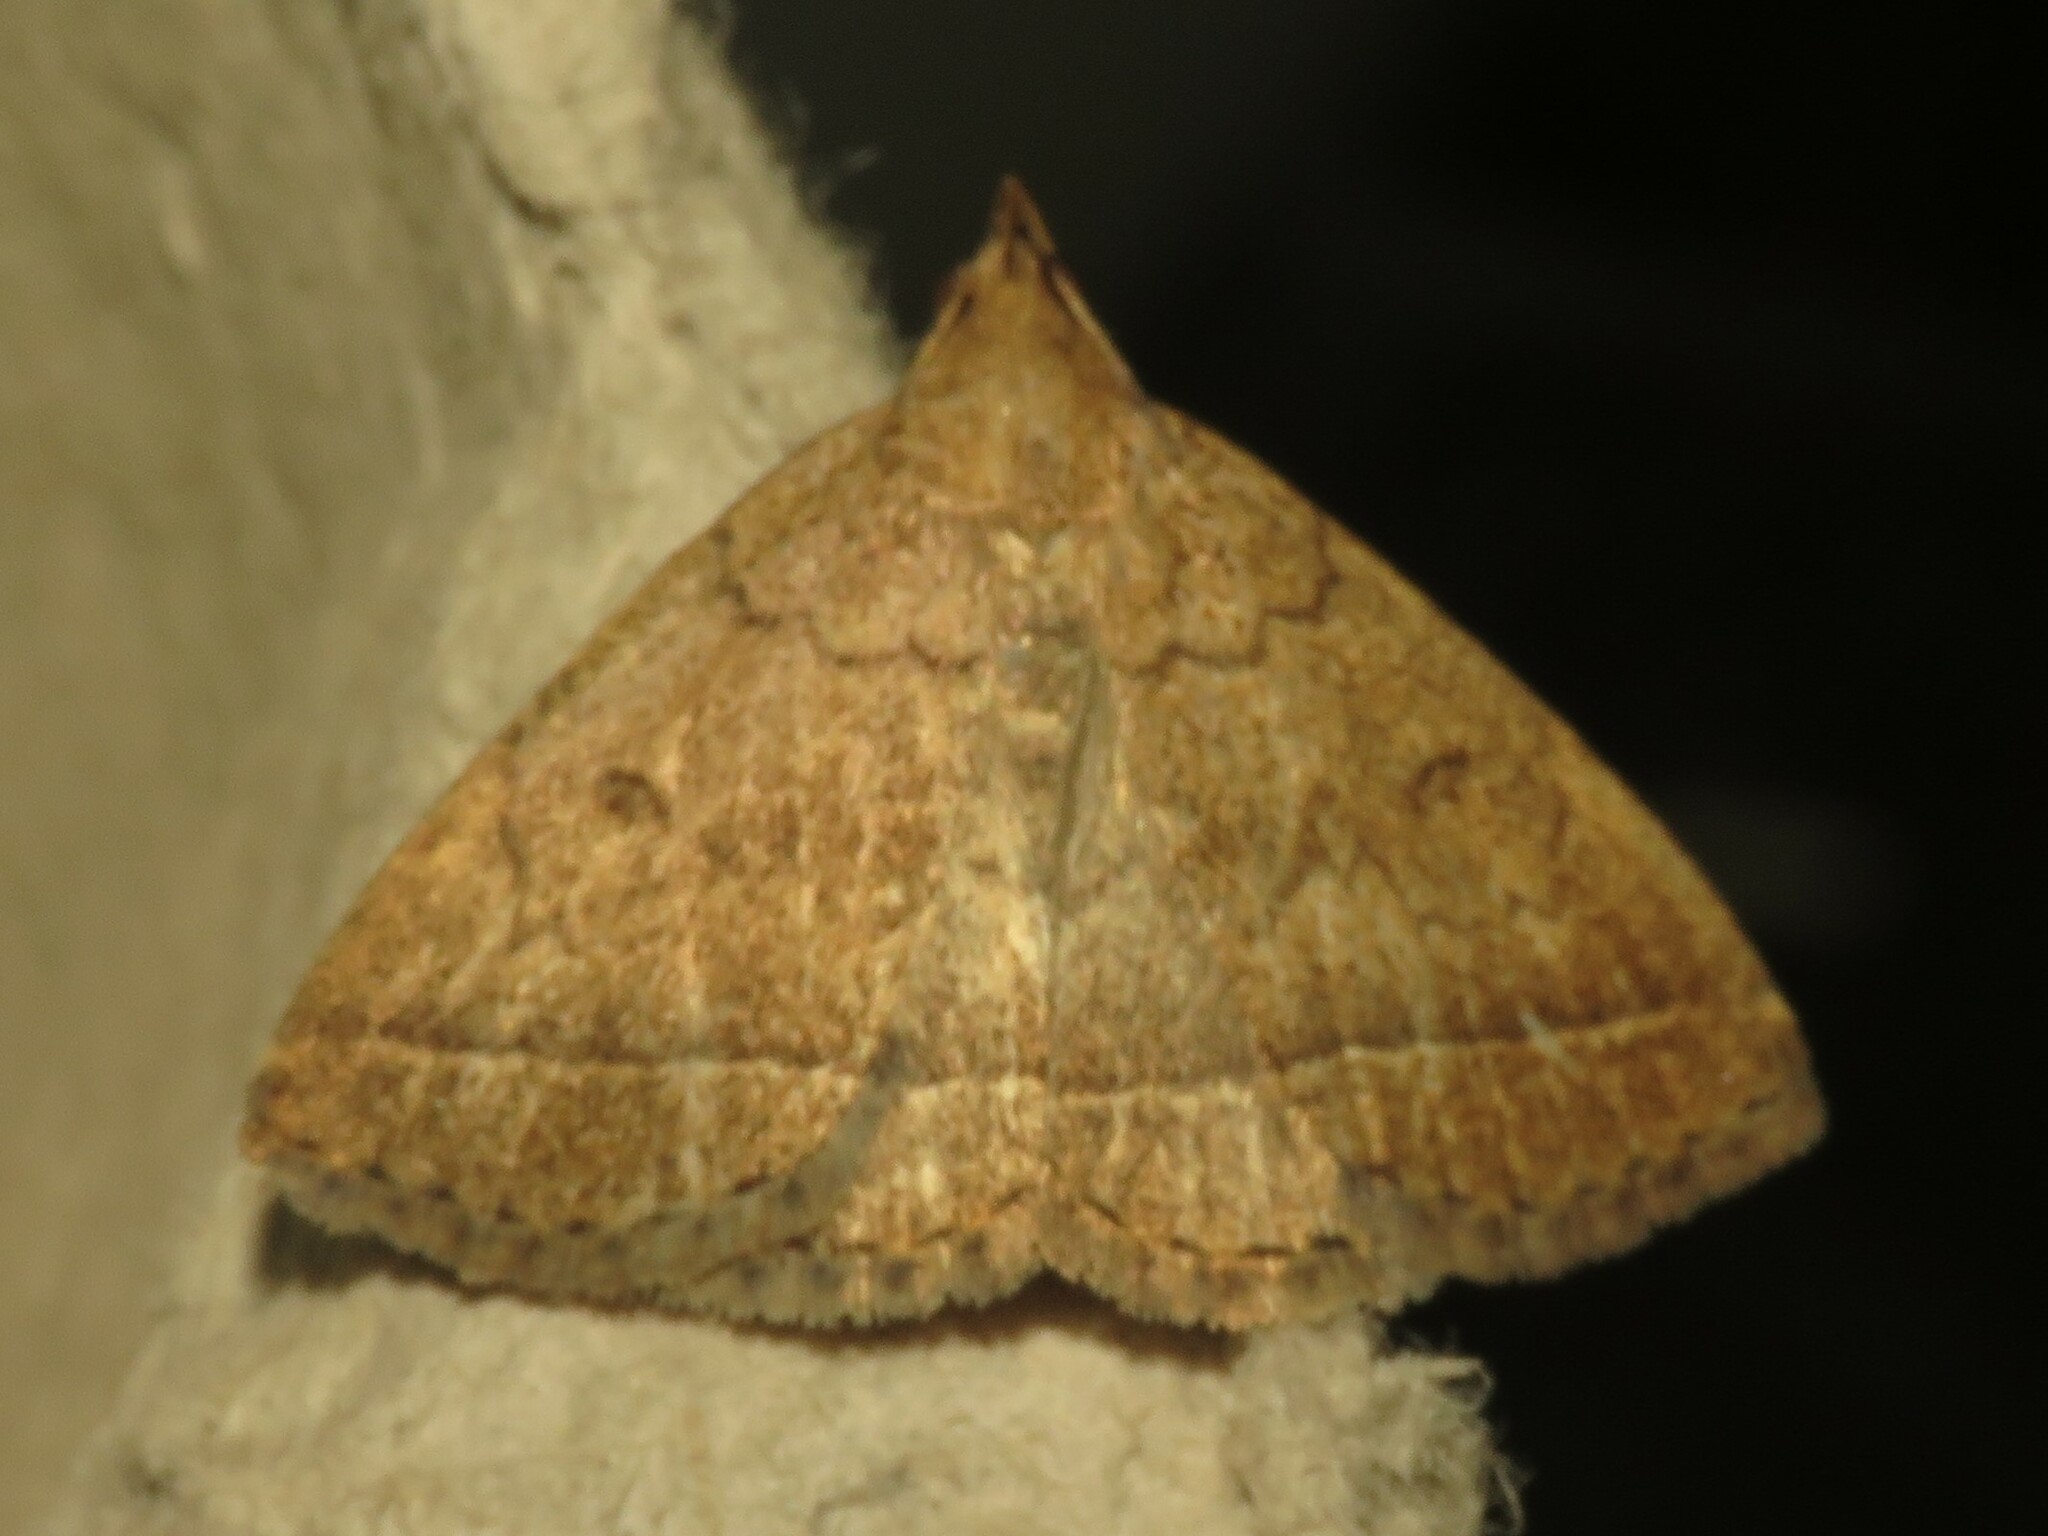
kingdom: Animalia
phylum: Arthropoda
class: Insecta
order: Lepidoptera
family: Erebidae
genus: Zanclognatha
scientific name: Zanclognatha jacchusalis
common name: Yellowish zanclognatha
